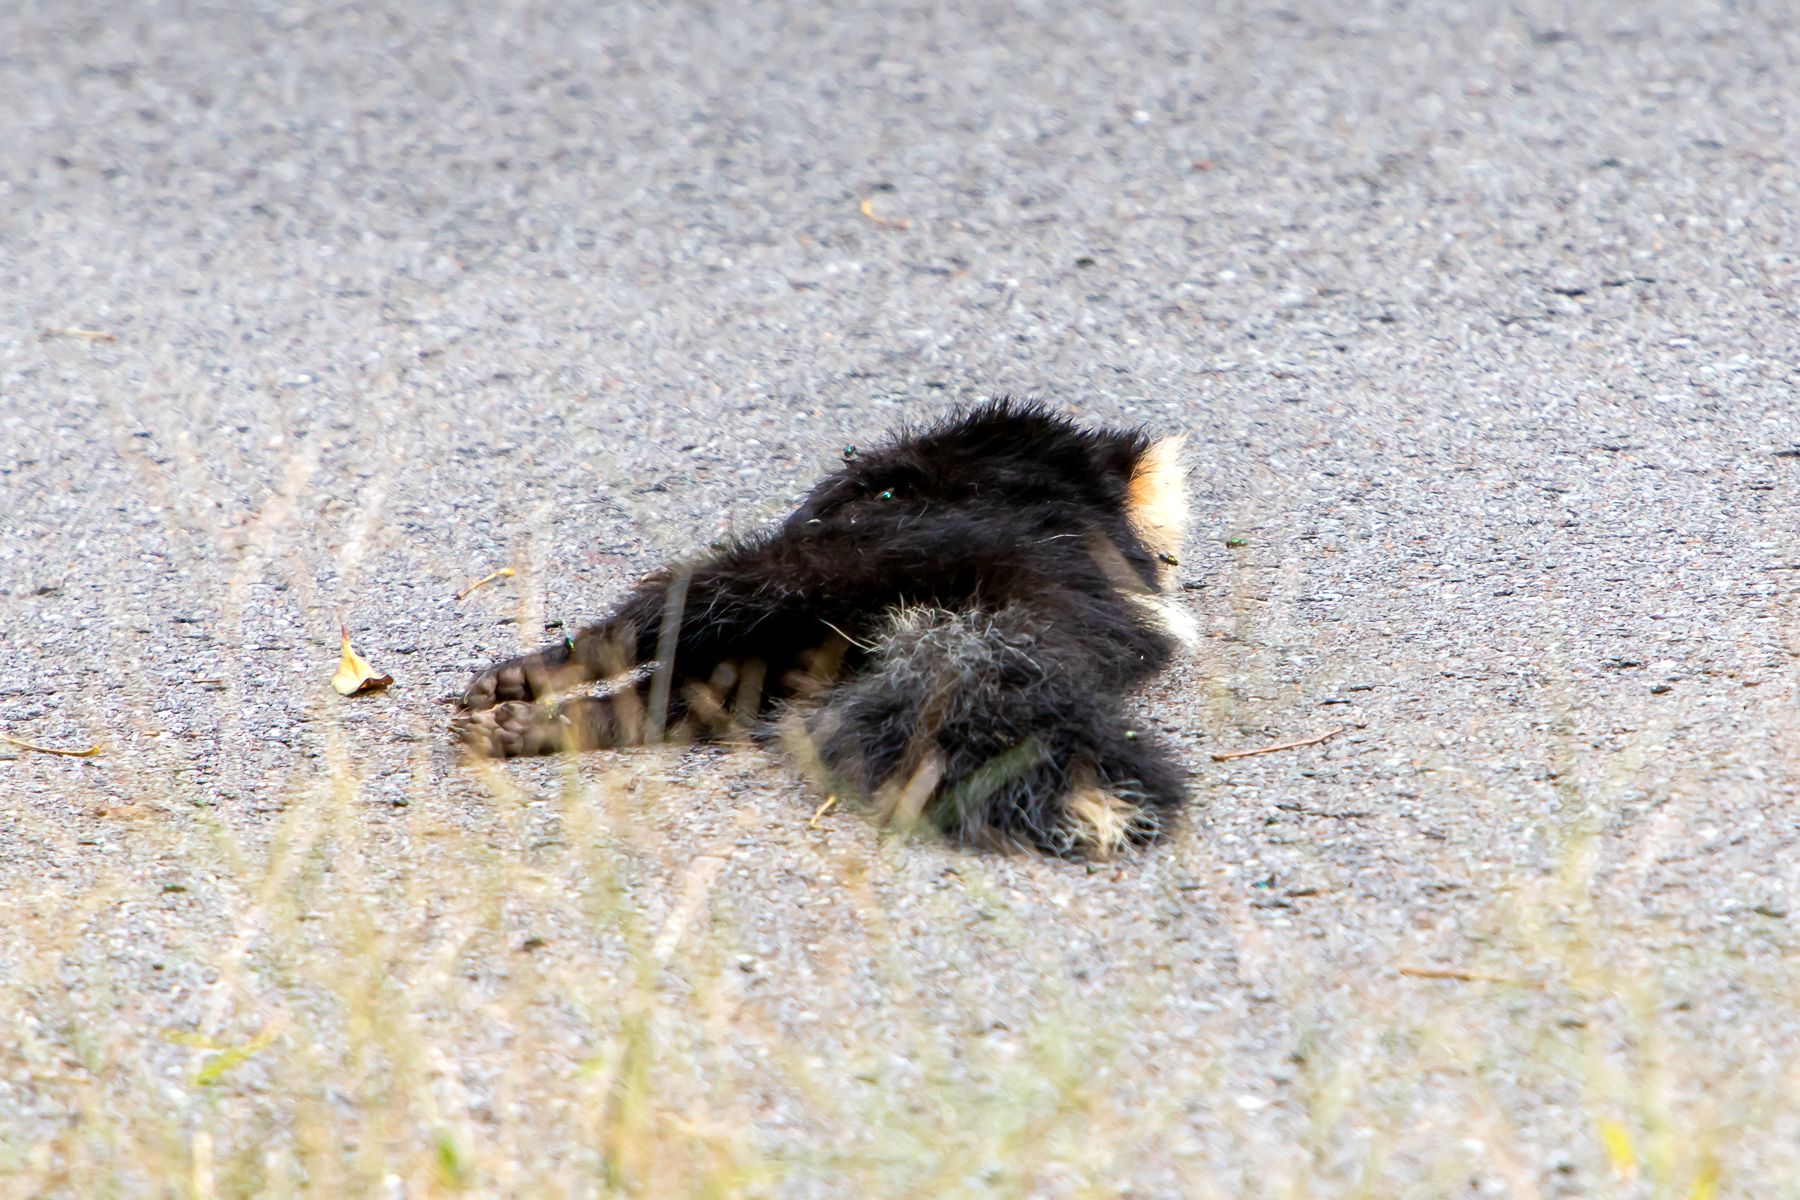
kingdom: Animalia
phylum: Chordata
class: Mammalia
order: Carnivora
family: Mephitidae
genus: Mephitis
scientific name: Mephitis mephitis
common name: Striped skunk
